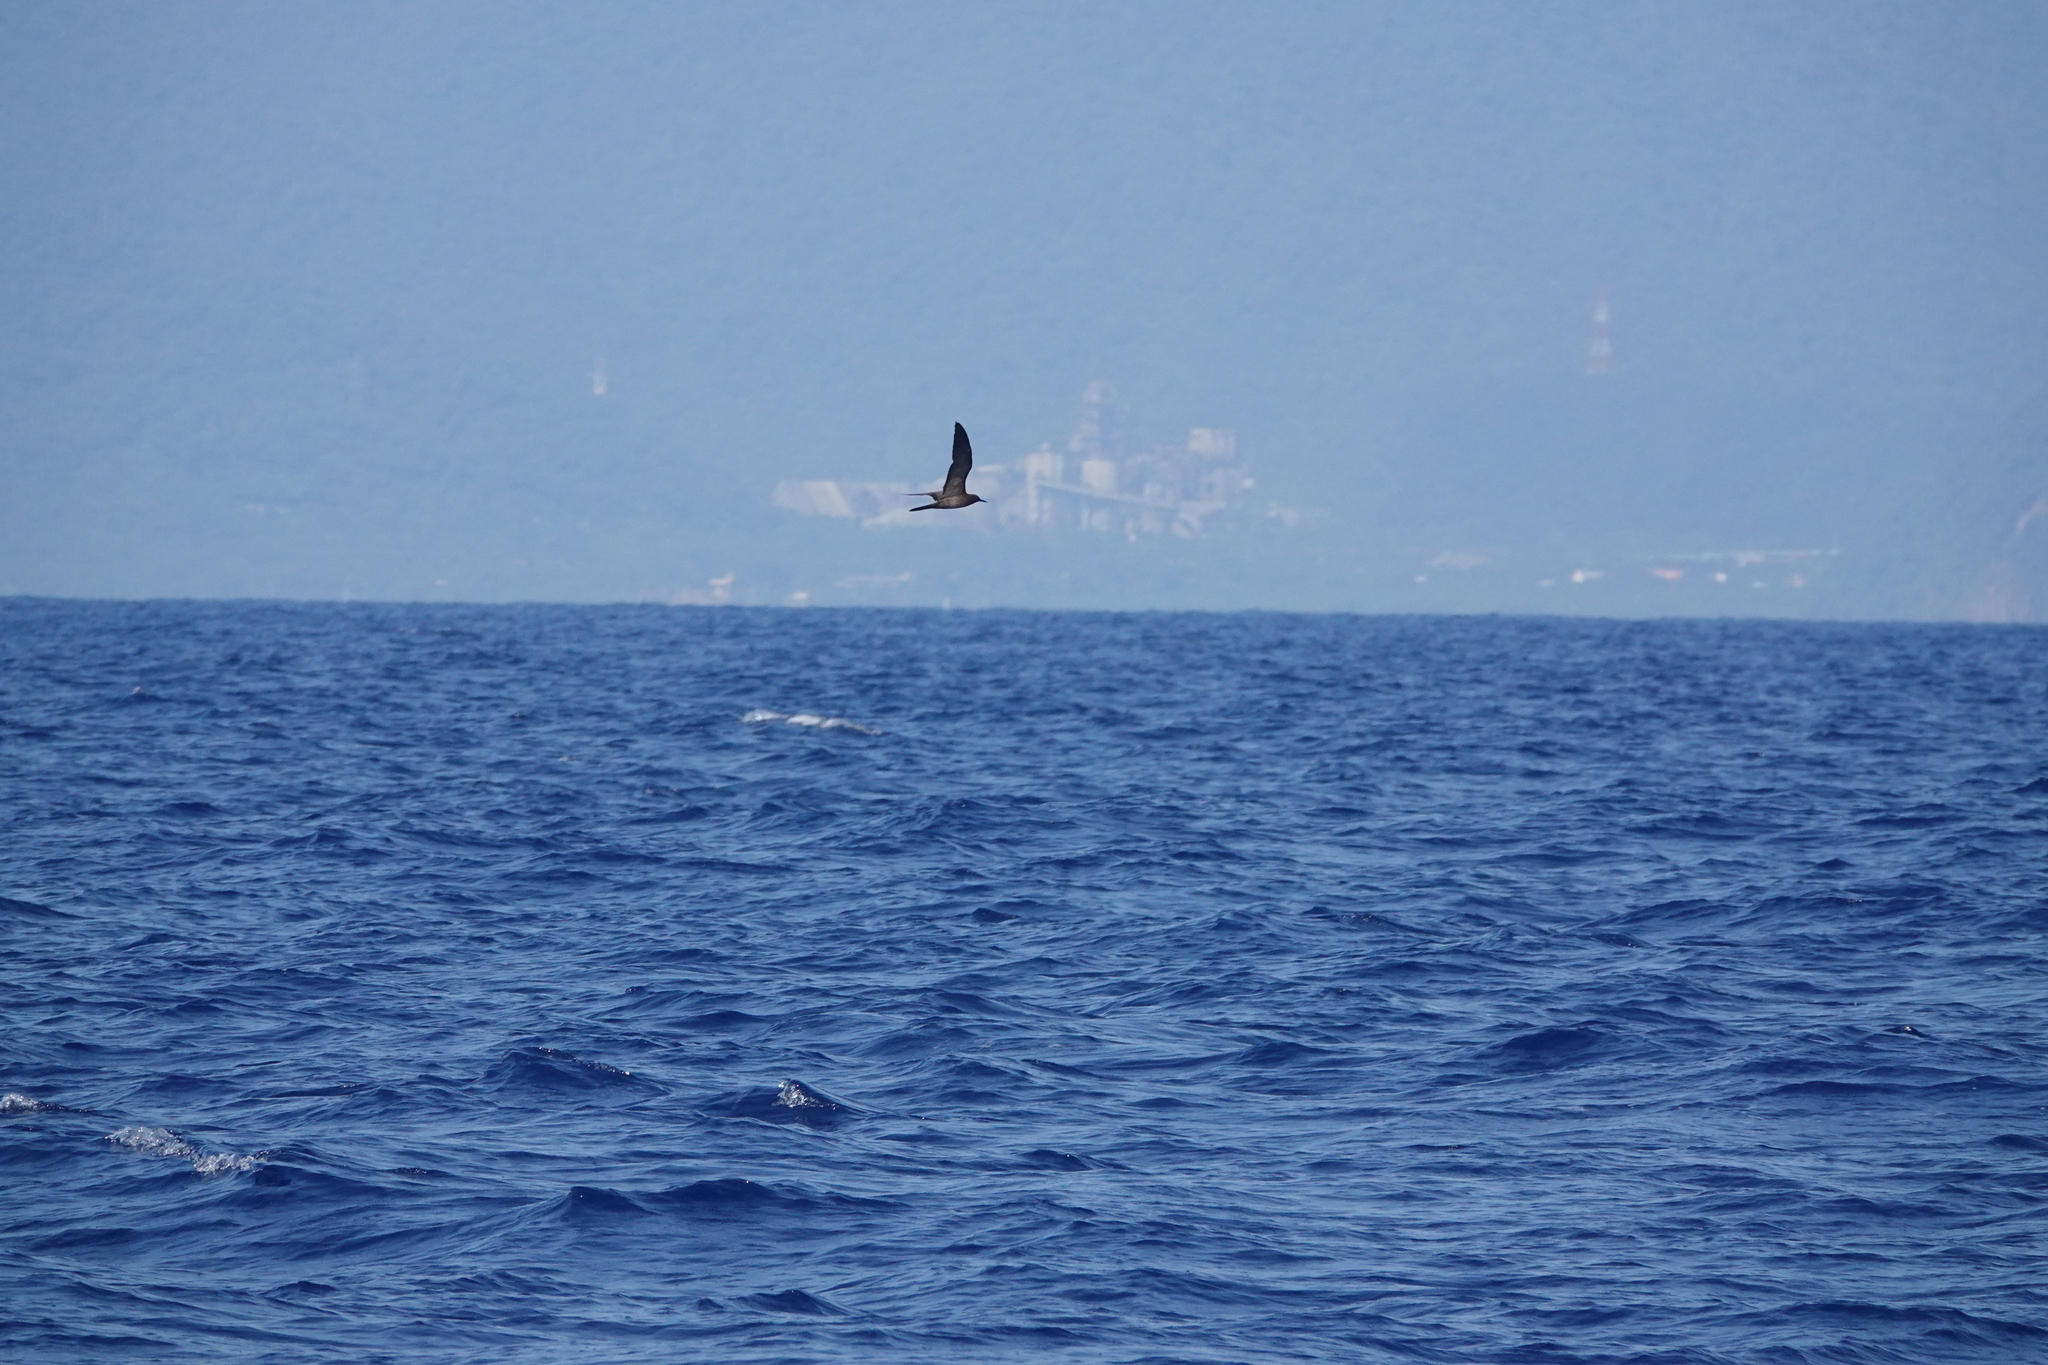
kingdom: Animalia
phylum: Chordata
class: Aves
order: Charadriiformes
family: Laridae
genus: Anous
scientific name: Anous stolidus
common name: Brown noddy
